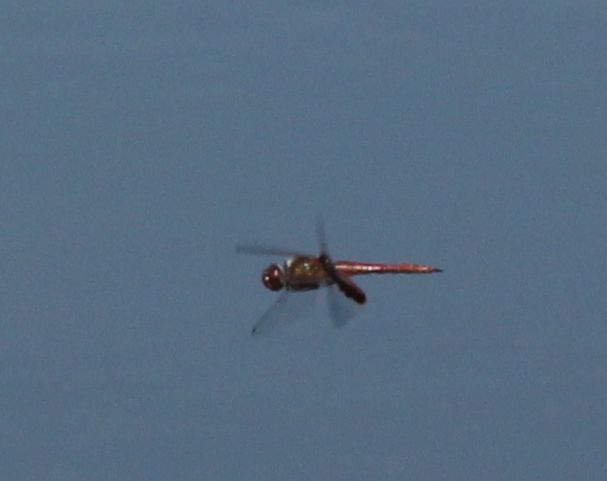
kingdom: Animalia
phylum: Arthropoda
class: Insecta
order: Odonata
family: Libellulidae
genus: Tramea
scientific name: Tramea onusta
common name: Red saddlebags
